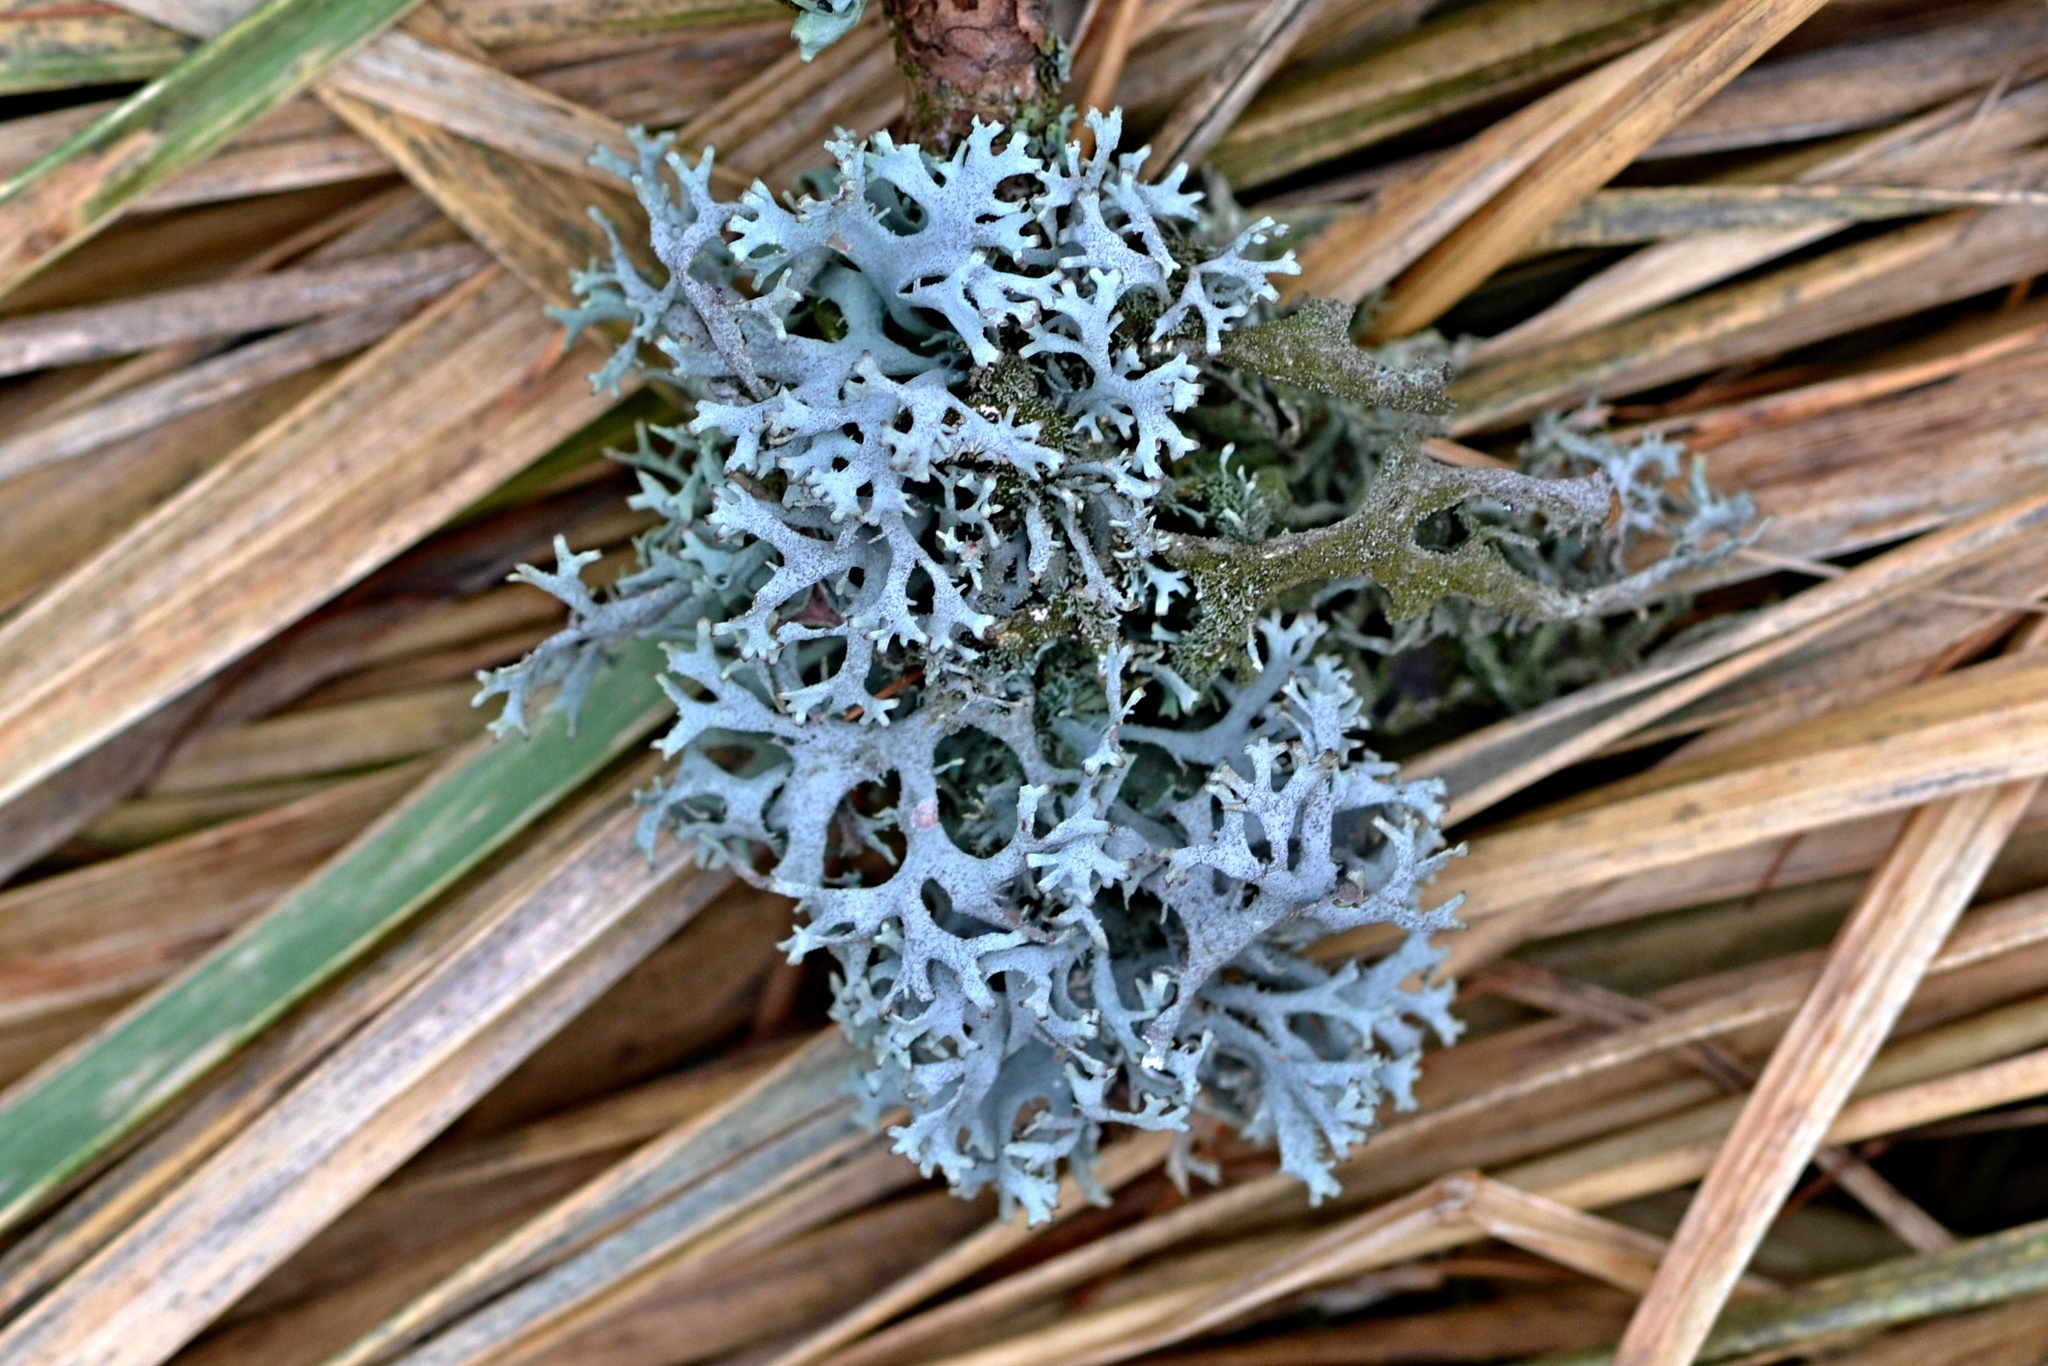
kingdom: Fungi
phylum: Ascomycota
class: Lecanoromycetes
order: Lecanorales
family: Parmeliaceae
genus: Pseudevernia
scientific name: Pseudevernia furfuracea
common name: Tree moss
